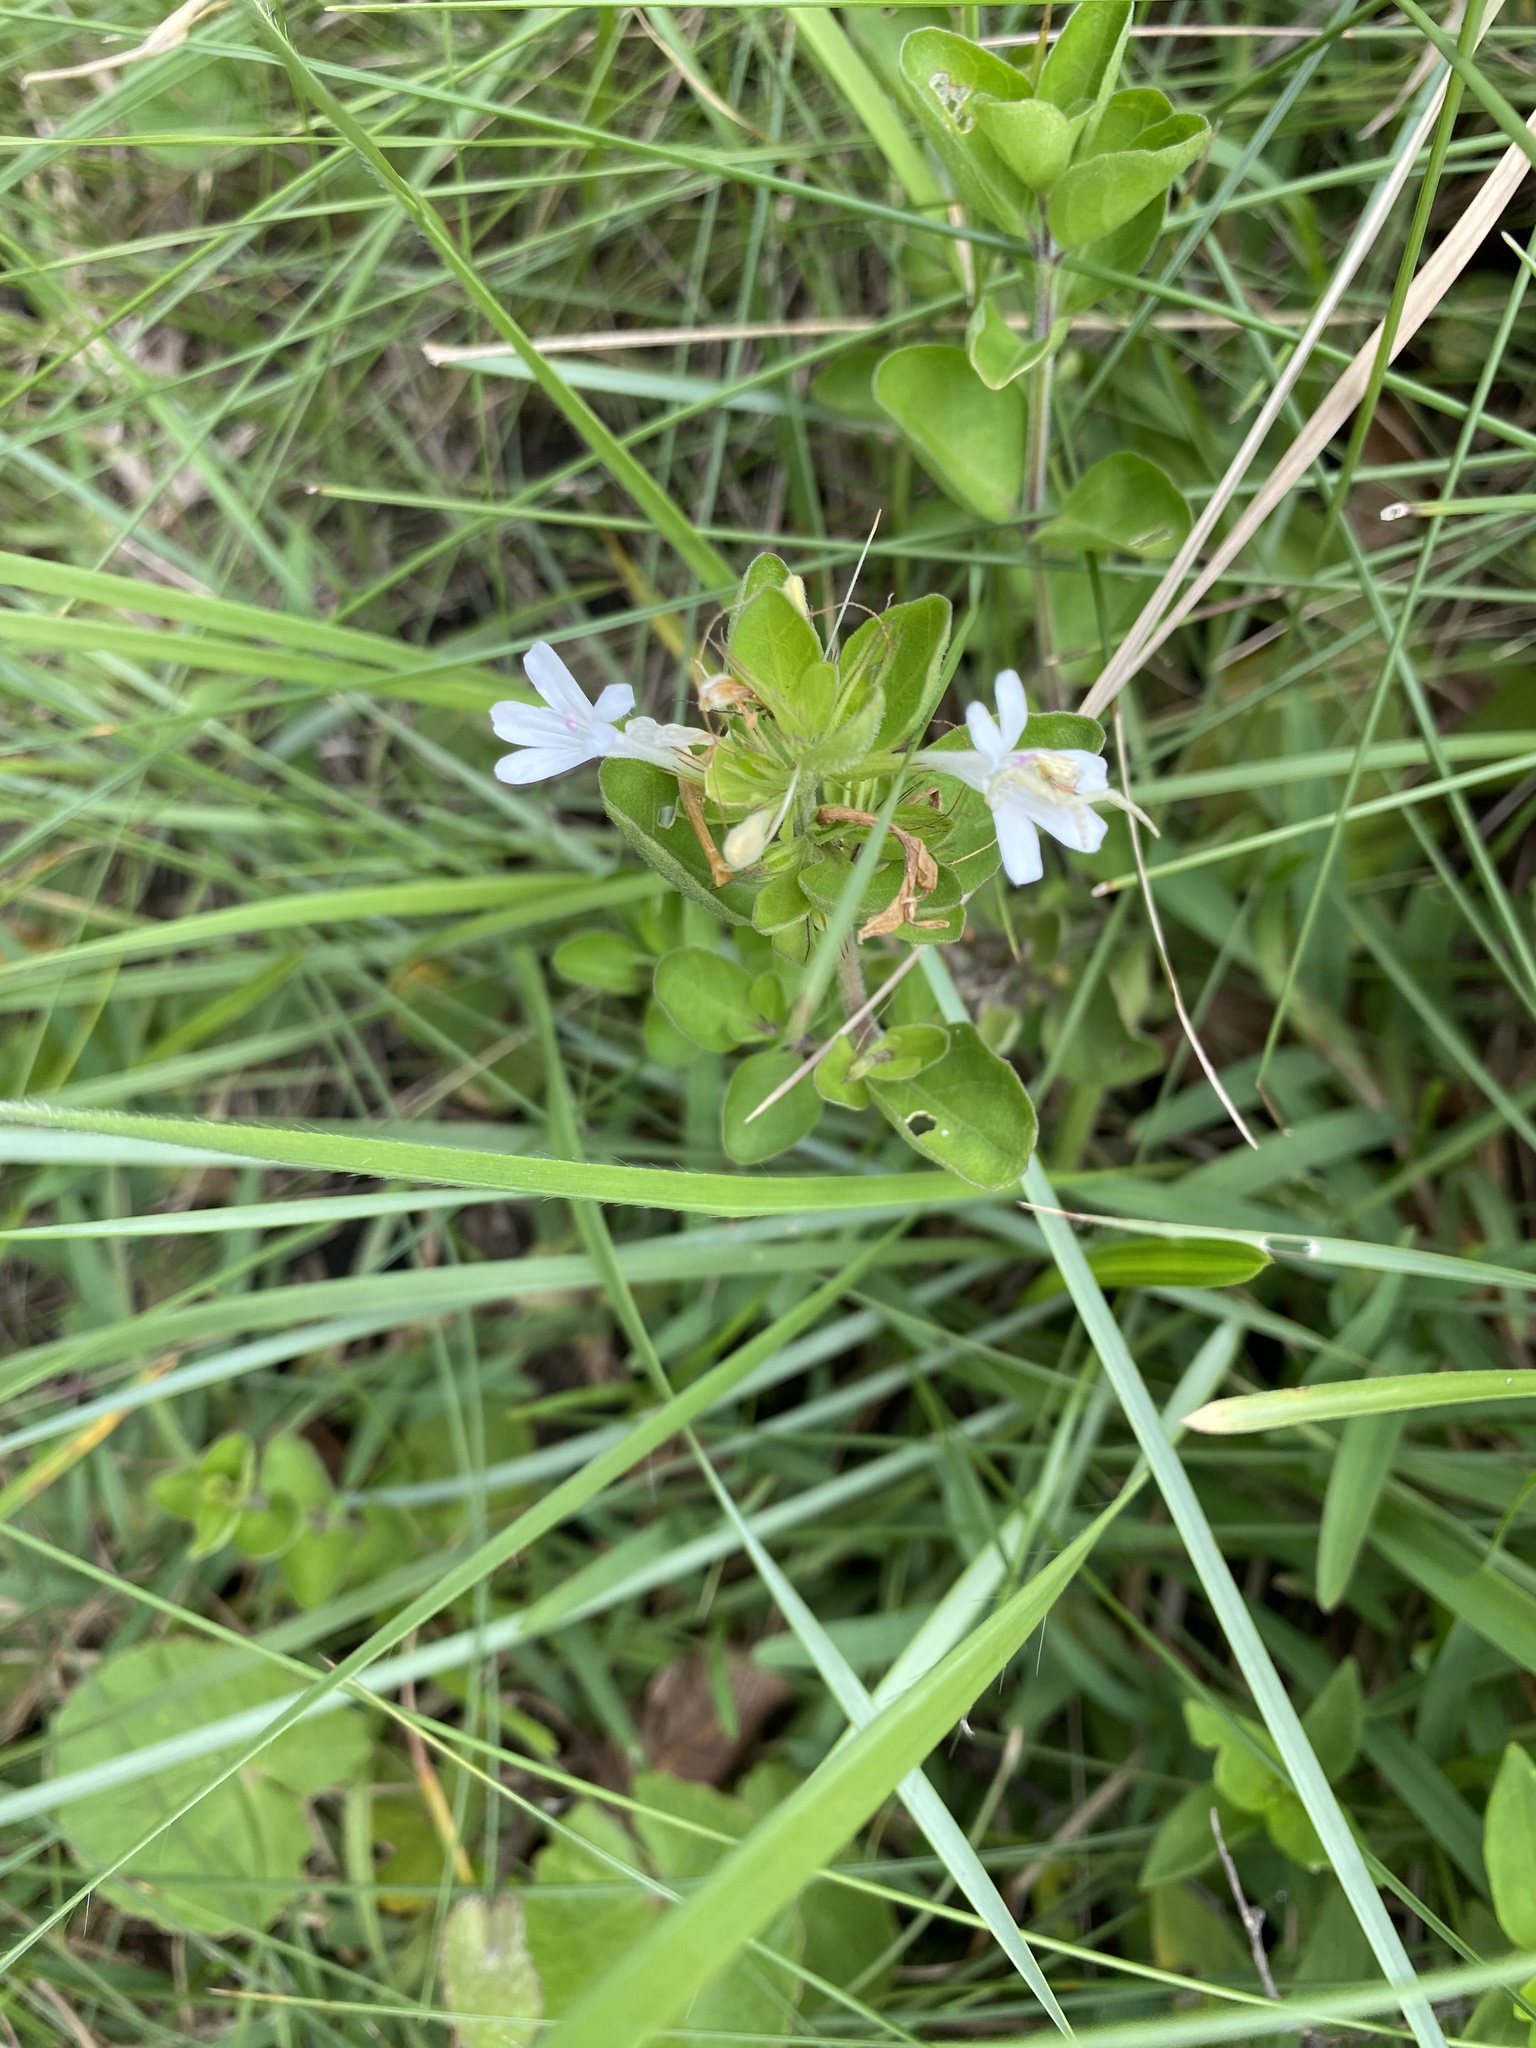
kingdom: Plantae
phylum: Tracheophyta
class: Magnoliopsida
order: Lamiales
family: Acanthaceae
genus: Dyschoriste
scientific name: Dyschoriste setigera
